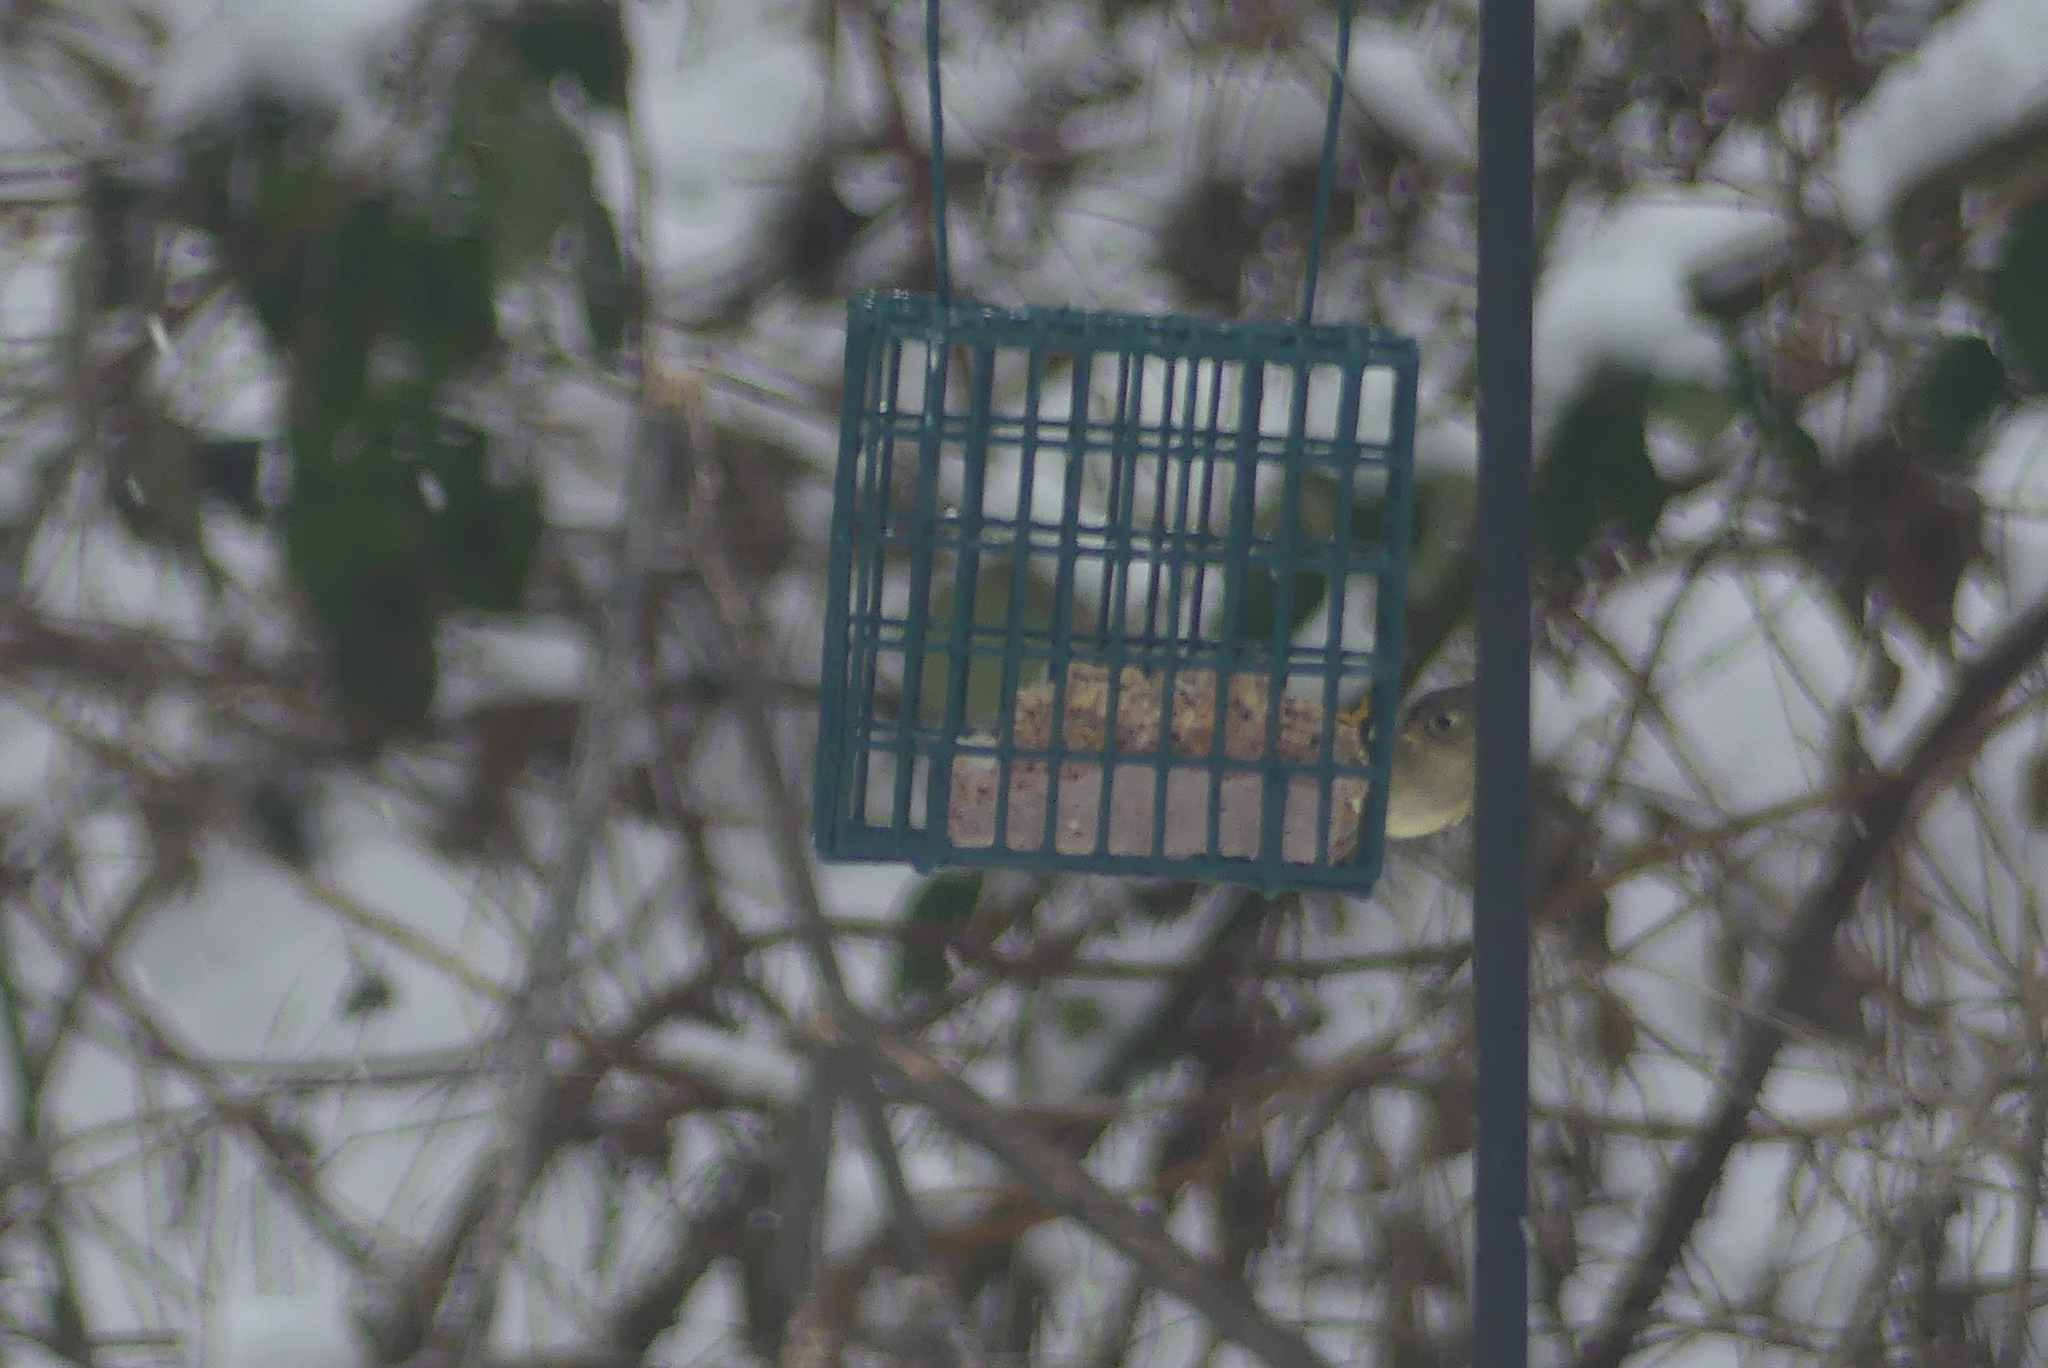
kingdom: Animalia
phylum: Chordata
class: Aves
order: Passeriformes
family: Regulidae
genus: Regulus
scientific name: Regulus calendula
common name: Ruby-crowned kinglet
